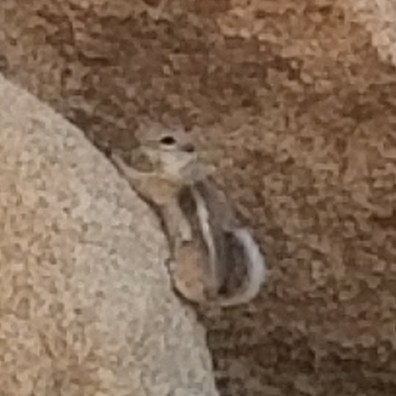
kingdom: Animalia
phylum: Chordata
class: Mammalia
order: Rodentia
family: Sciuridae
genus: Ammospermophilus
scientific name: Ammospermophilus leucurus
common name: White-tailed antelope squirrel
